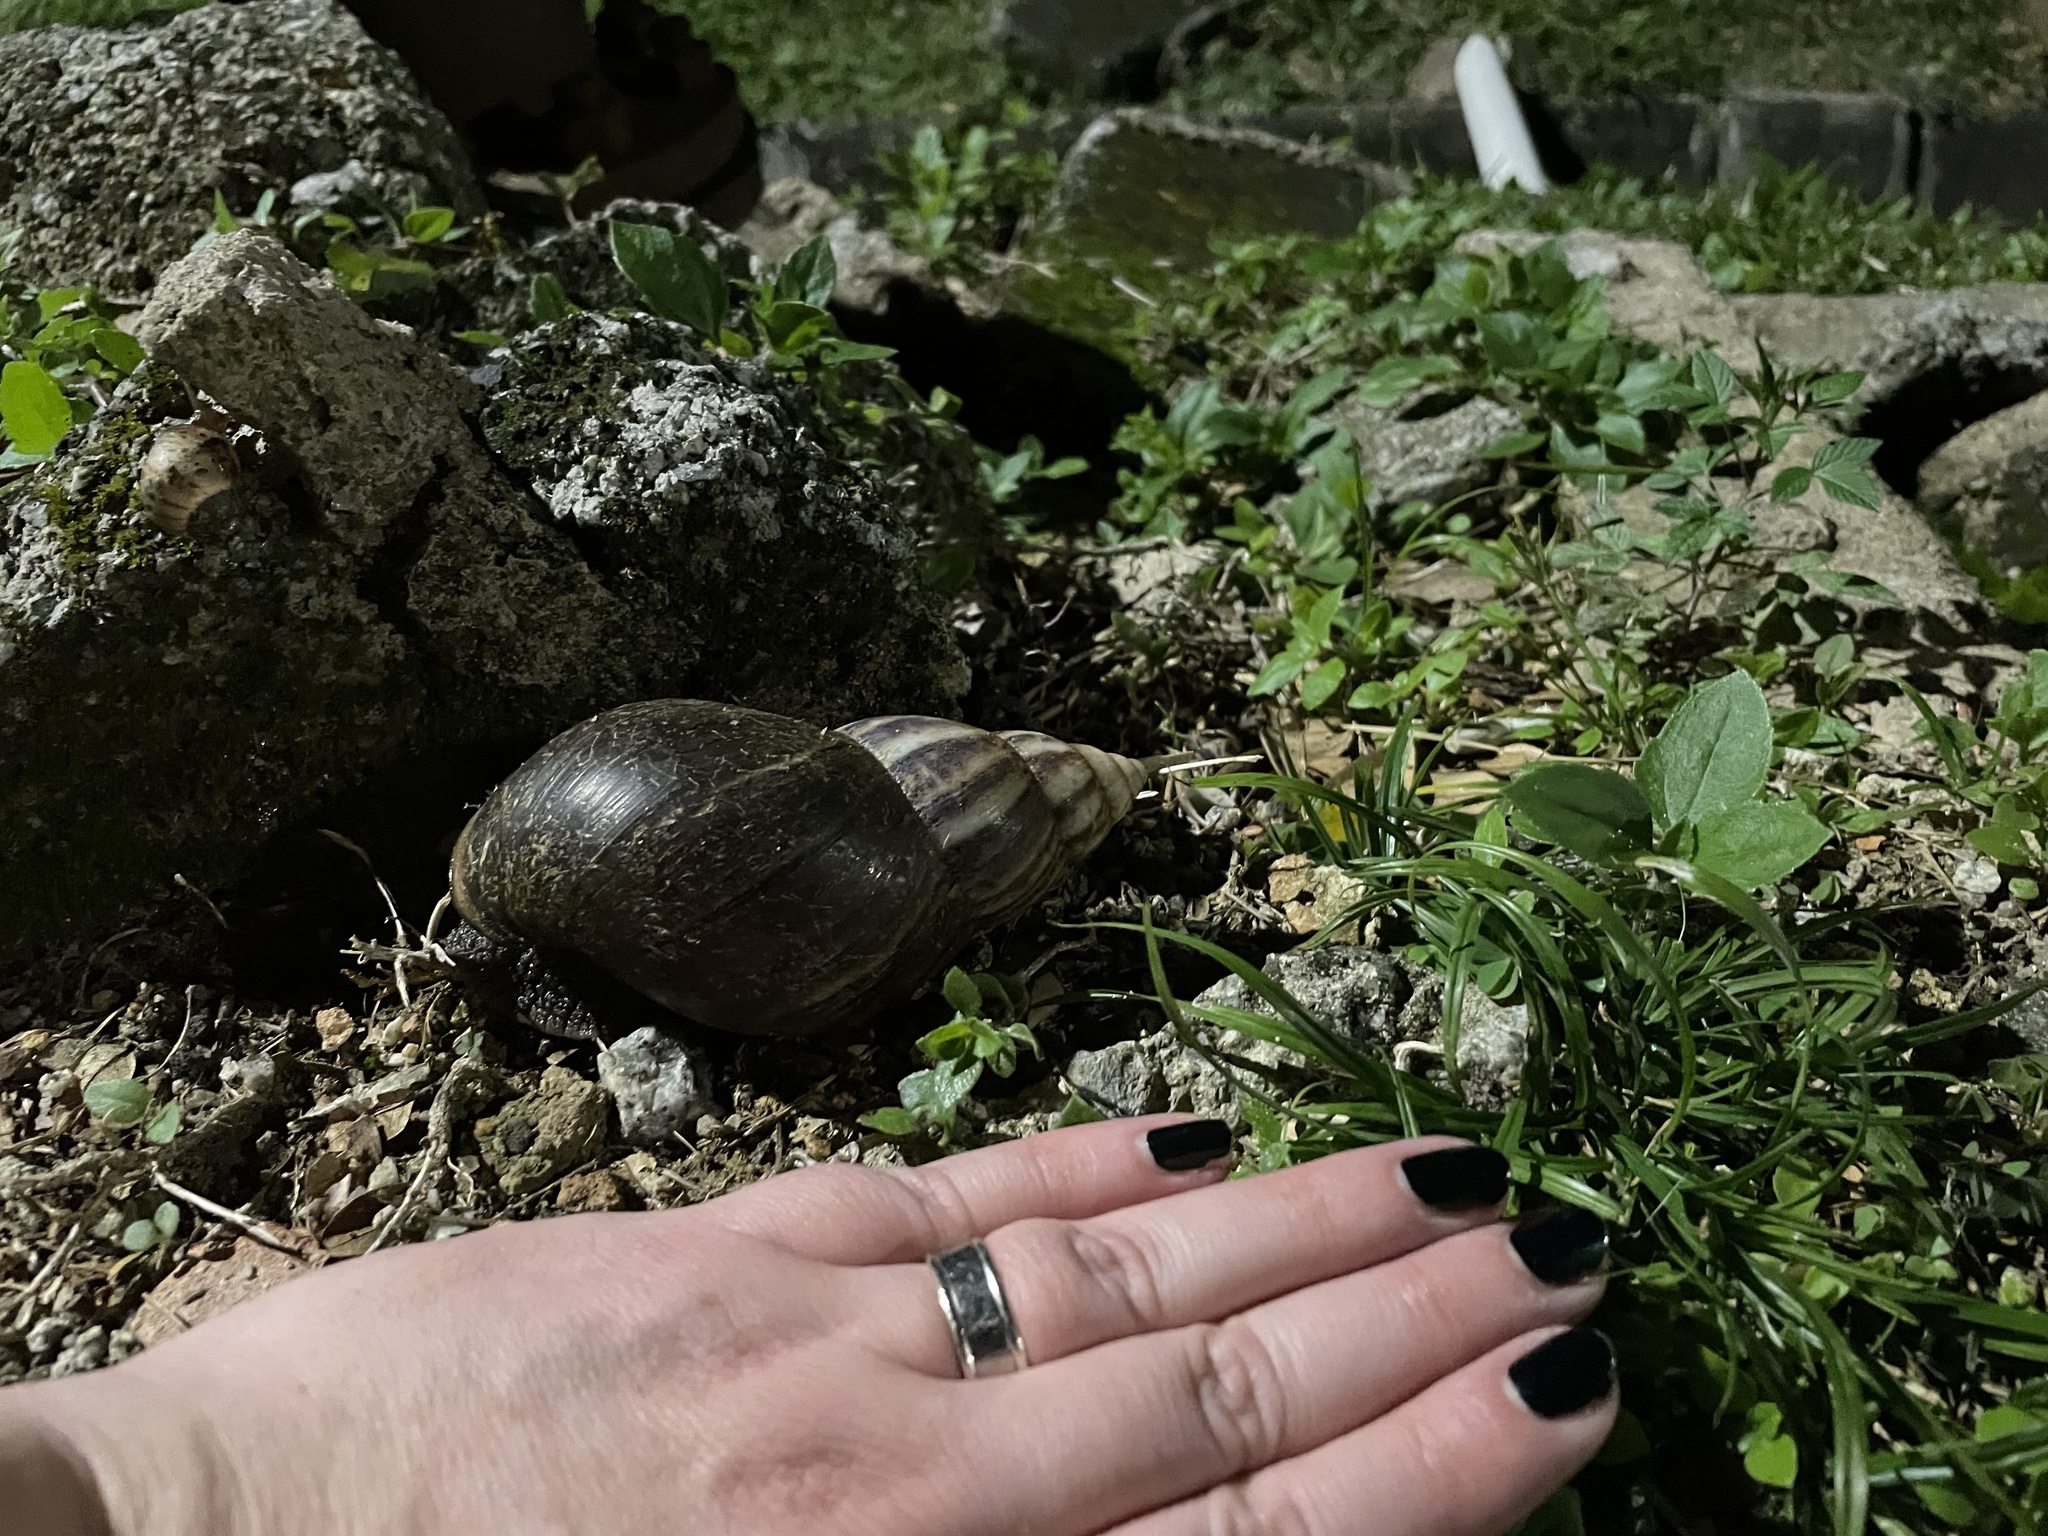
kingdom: Animalia
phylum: Mollusca
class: Gastropoda
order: Stylommatophora
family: Achatinidae
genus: Lissachatina
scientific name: Lissachatina fulica
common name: Giant african snail
